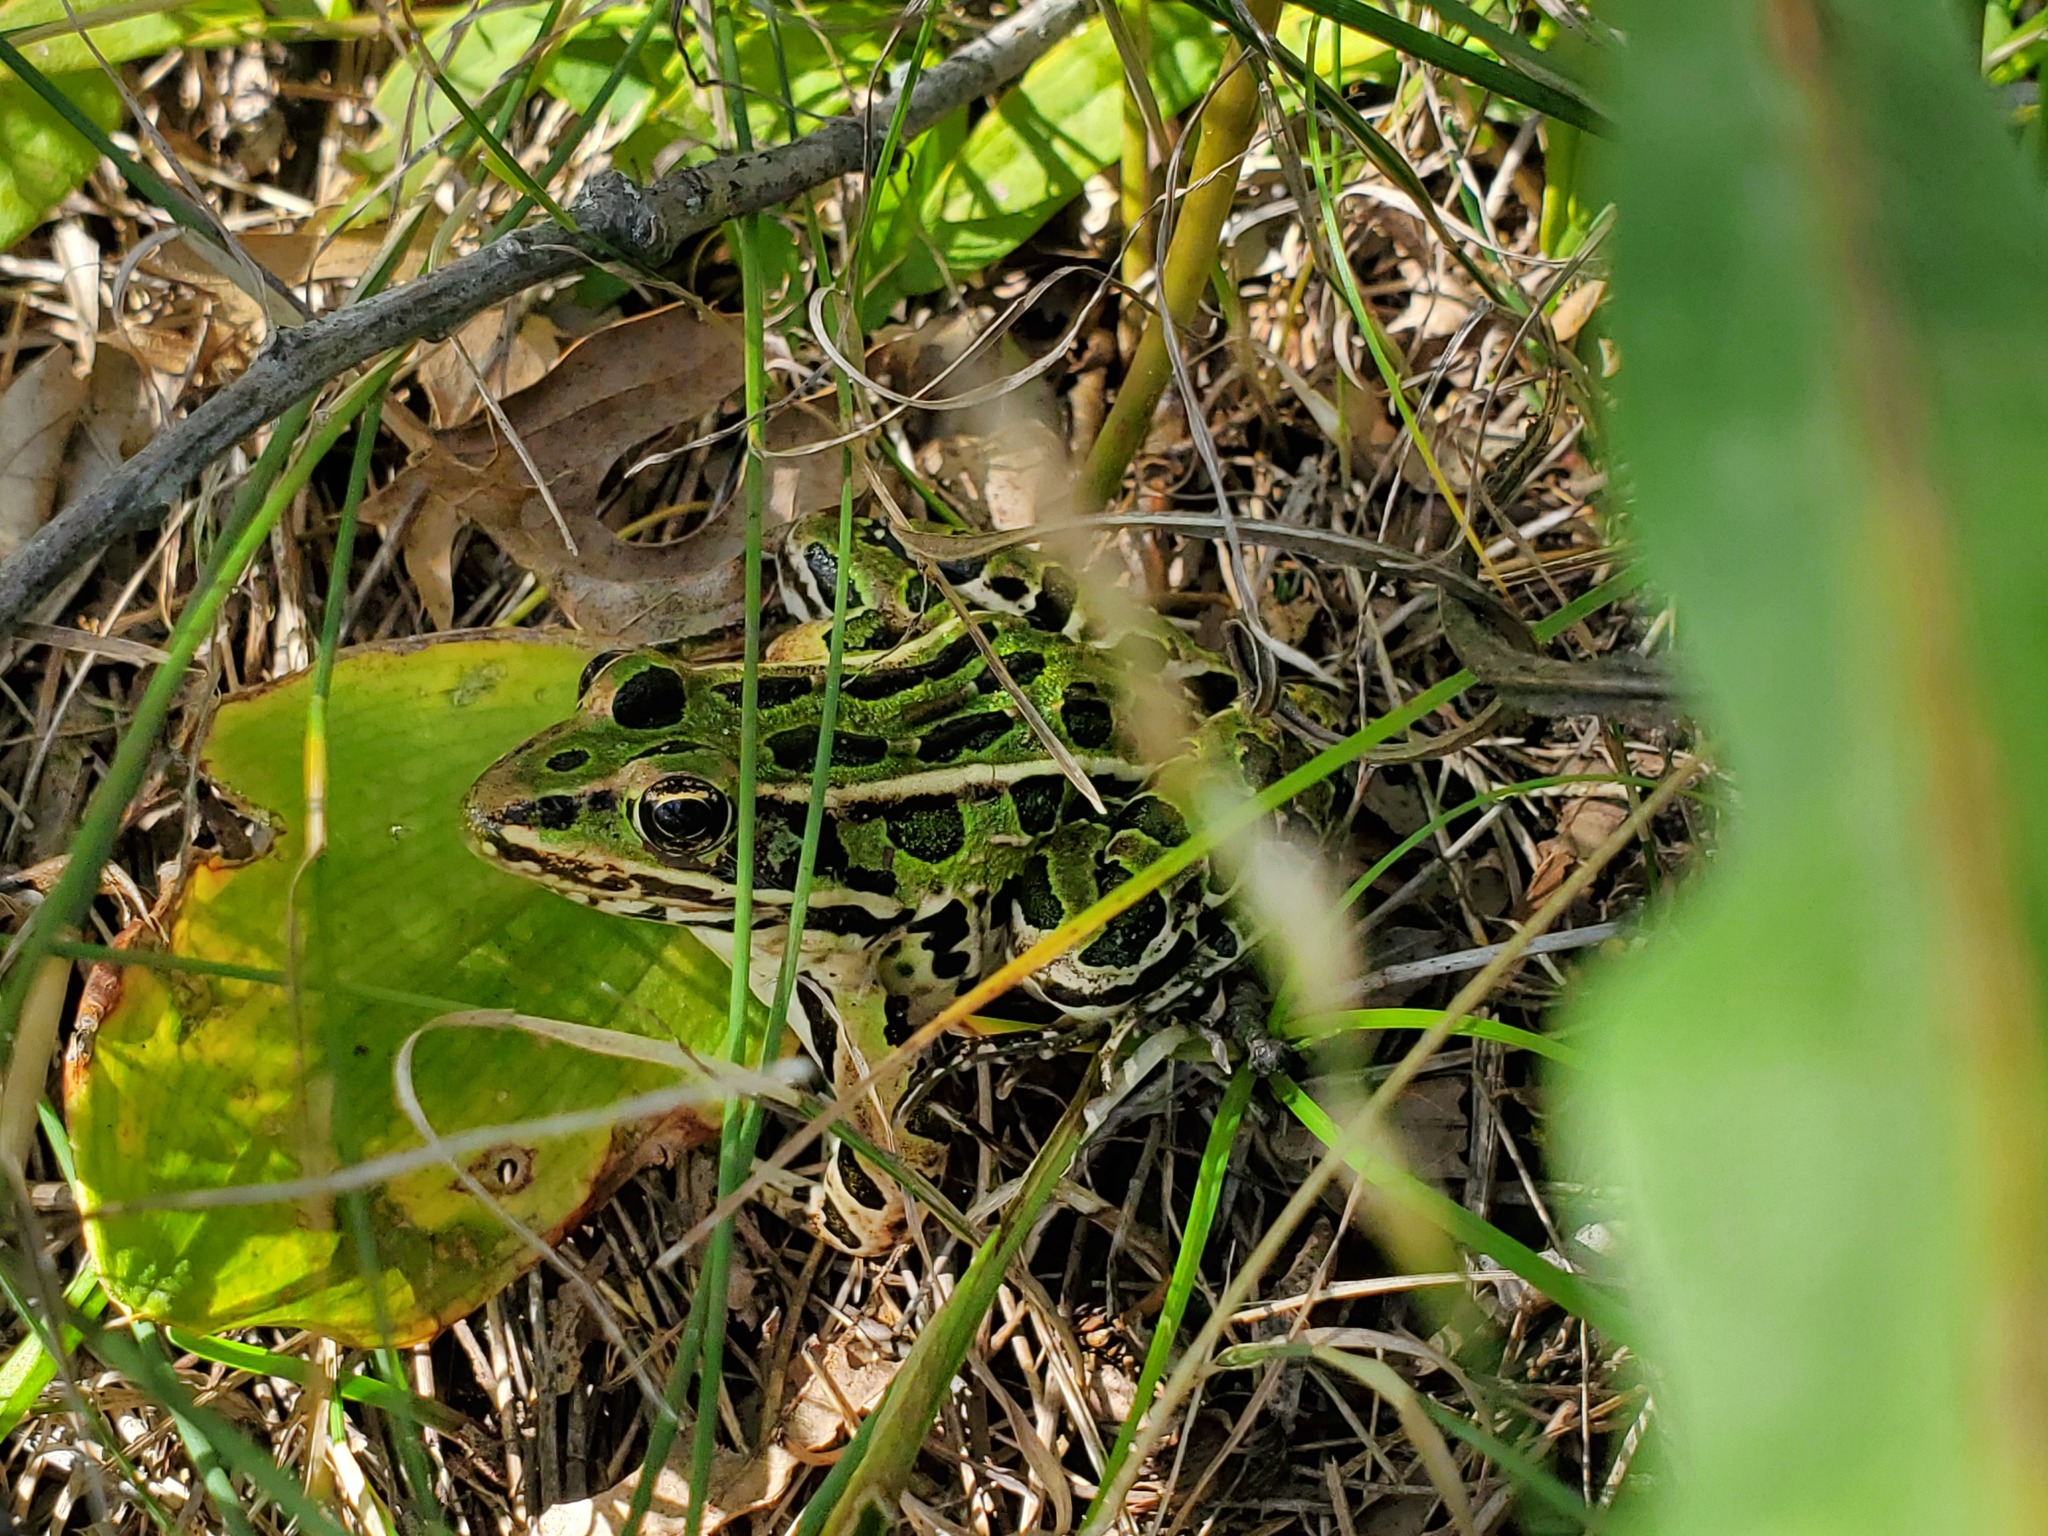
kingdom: Animalia
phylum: Chordata
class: Amphibia
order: Anura
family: Ranidae
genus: Lithobates
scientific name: Lithobates pipiens
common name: Northern leopard frog
